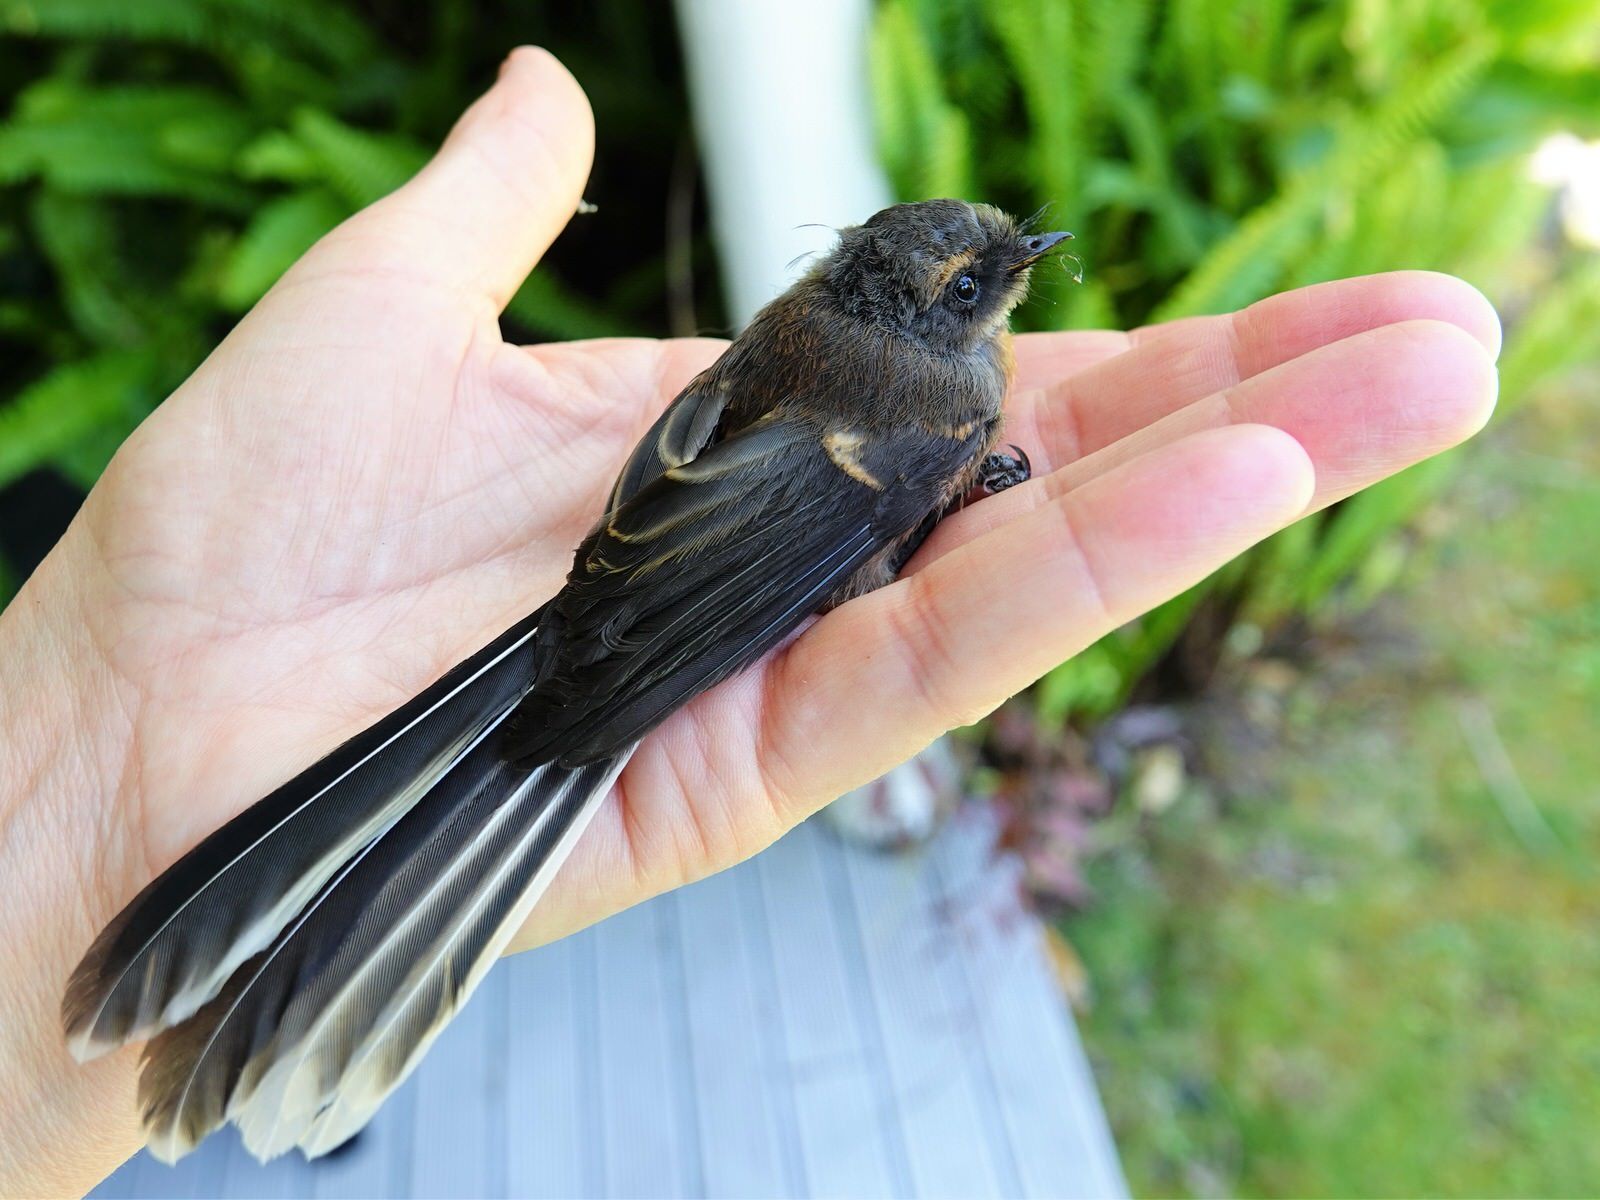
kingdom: Animalia
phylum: Chordata
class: Aves
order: Passeriformes
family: Rhipiduridae
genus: Rhipidura
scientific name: Rhipidura fuliginosa
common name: New zealand fantail
